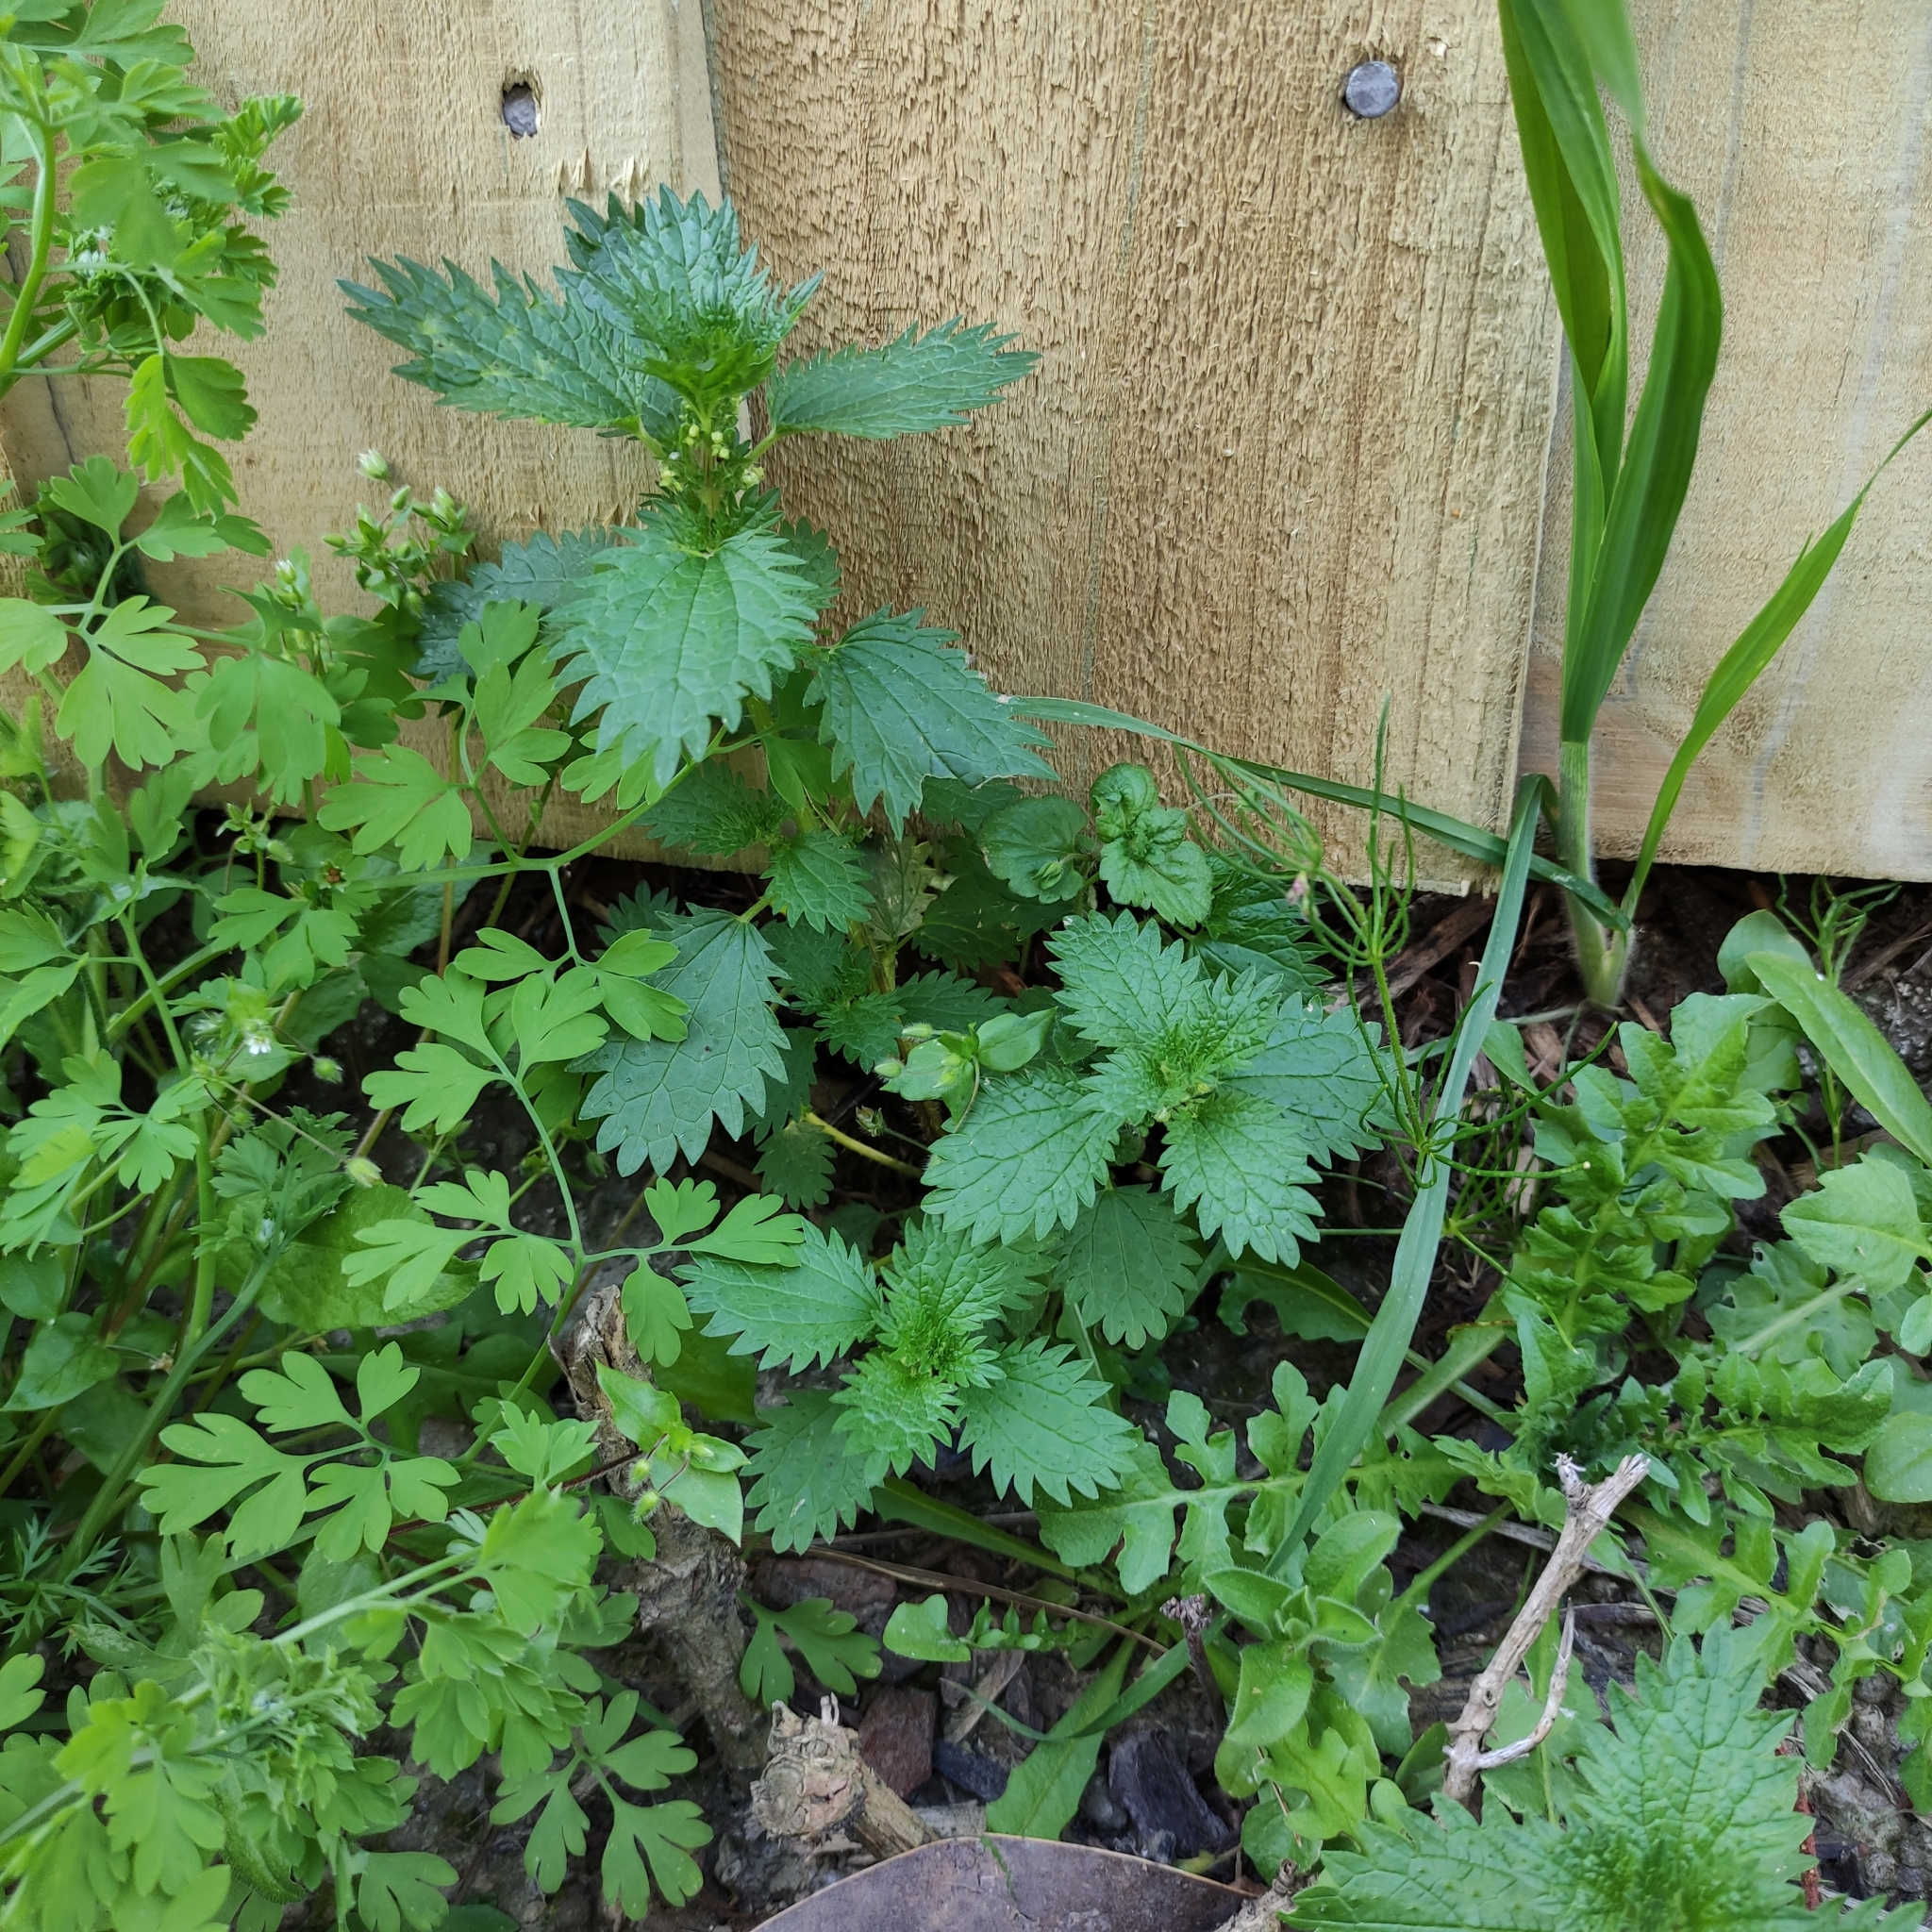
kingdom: Plantae
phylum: Tracheophyta
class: Magnoliopsida
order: Rosales
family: Urticaceae
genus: Urtica
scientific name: Urtica urens
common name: Dwarf nettle
